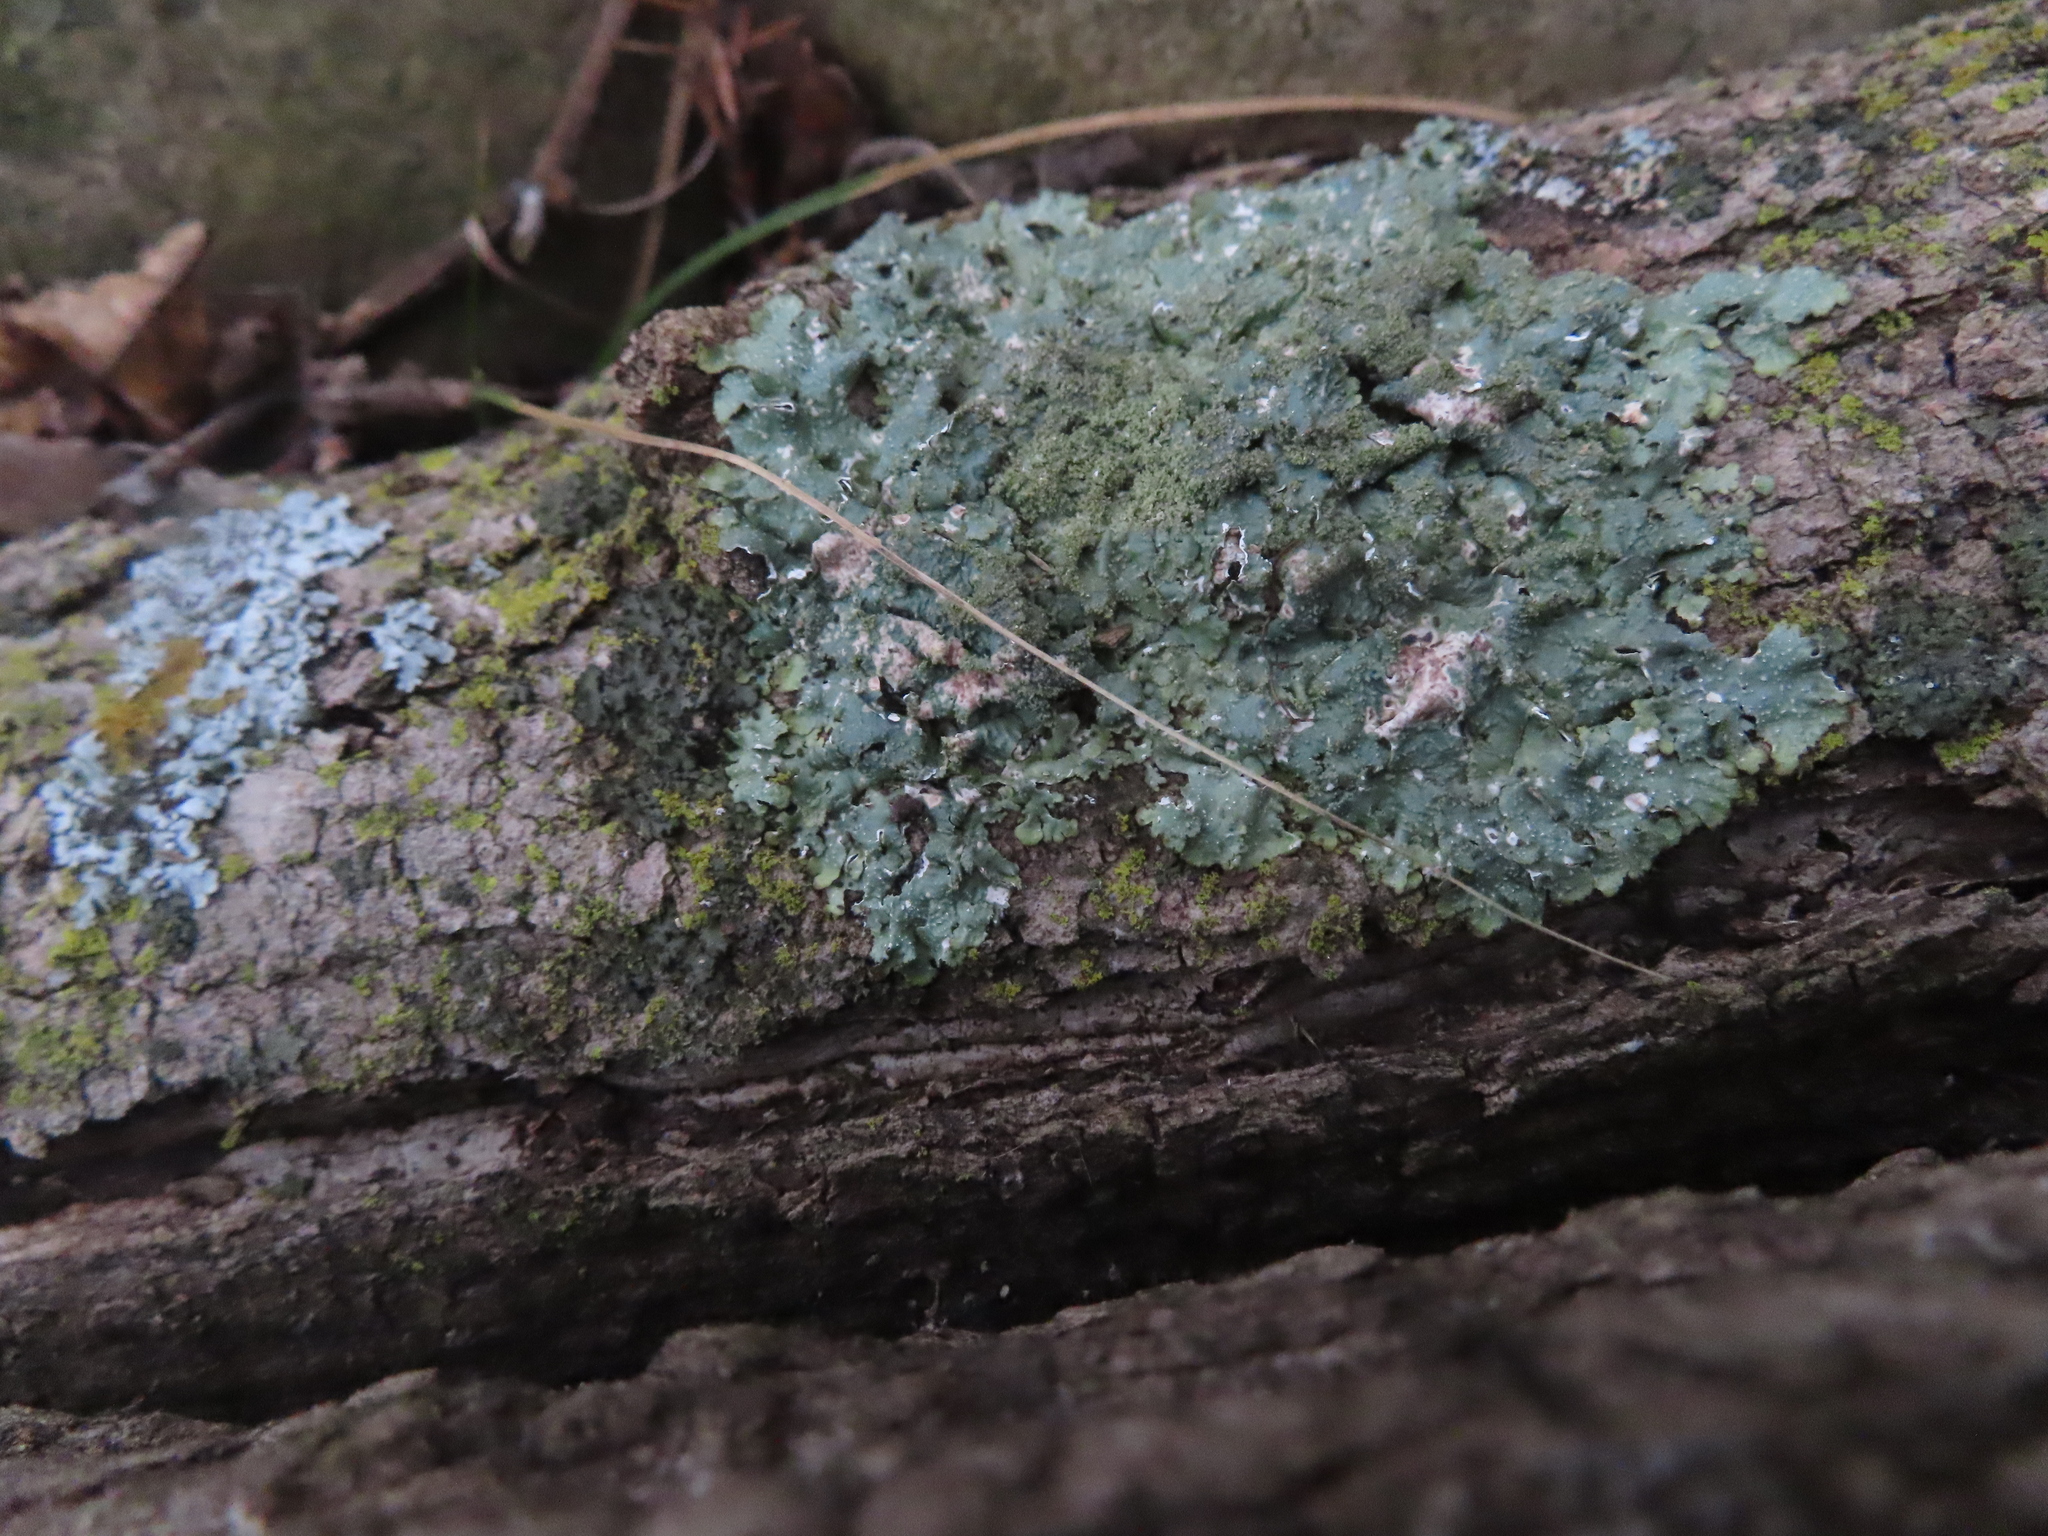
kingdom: Fungi
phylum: Ascomycota
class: Lecanoromycetes
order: Lecanorales
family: Parmeliaceae
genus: Punctelia
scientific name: Punctelia rudecta
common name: Rough speckled shield lichen
